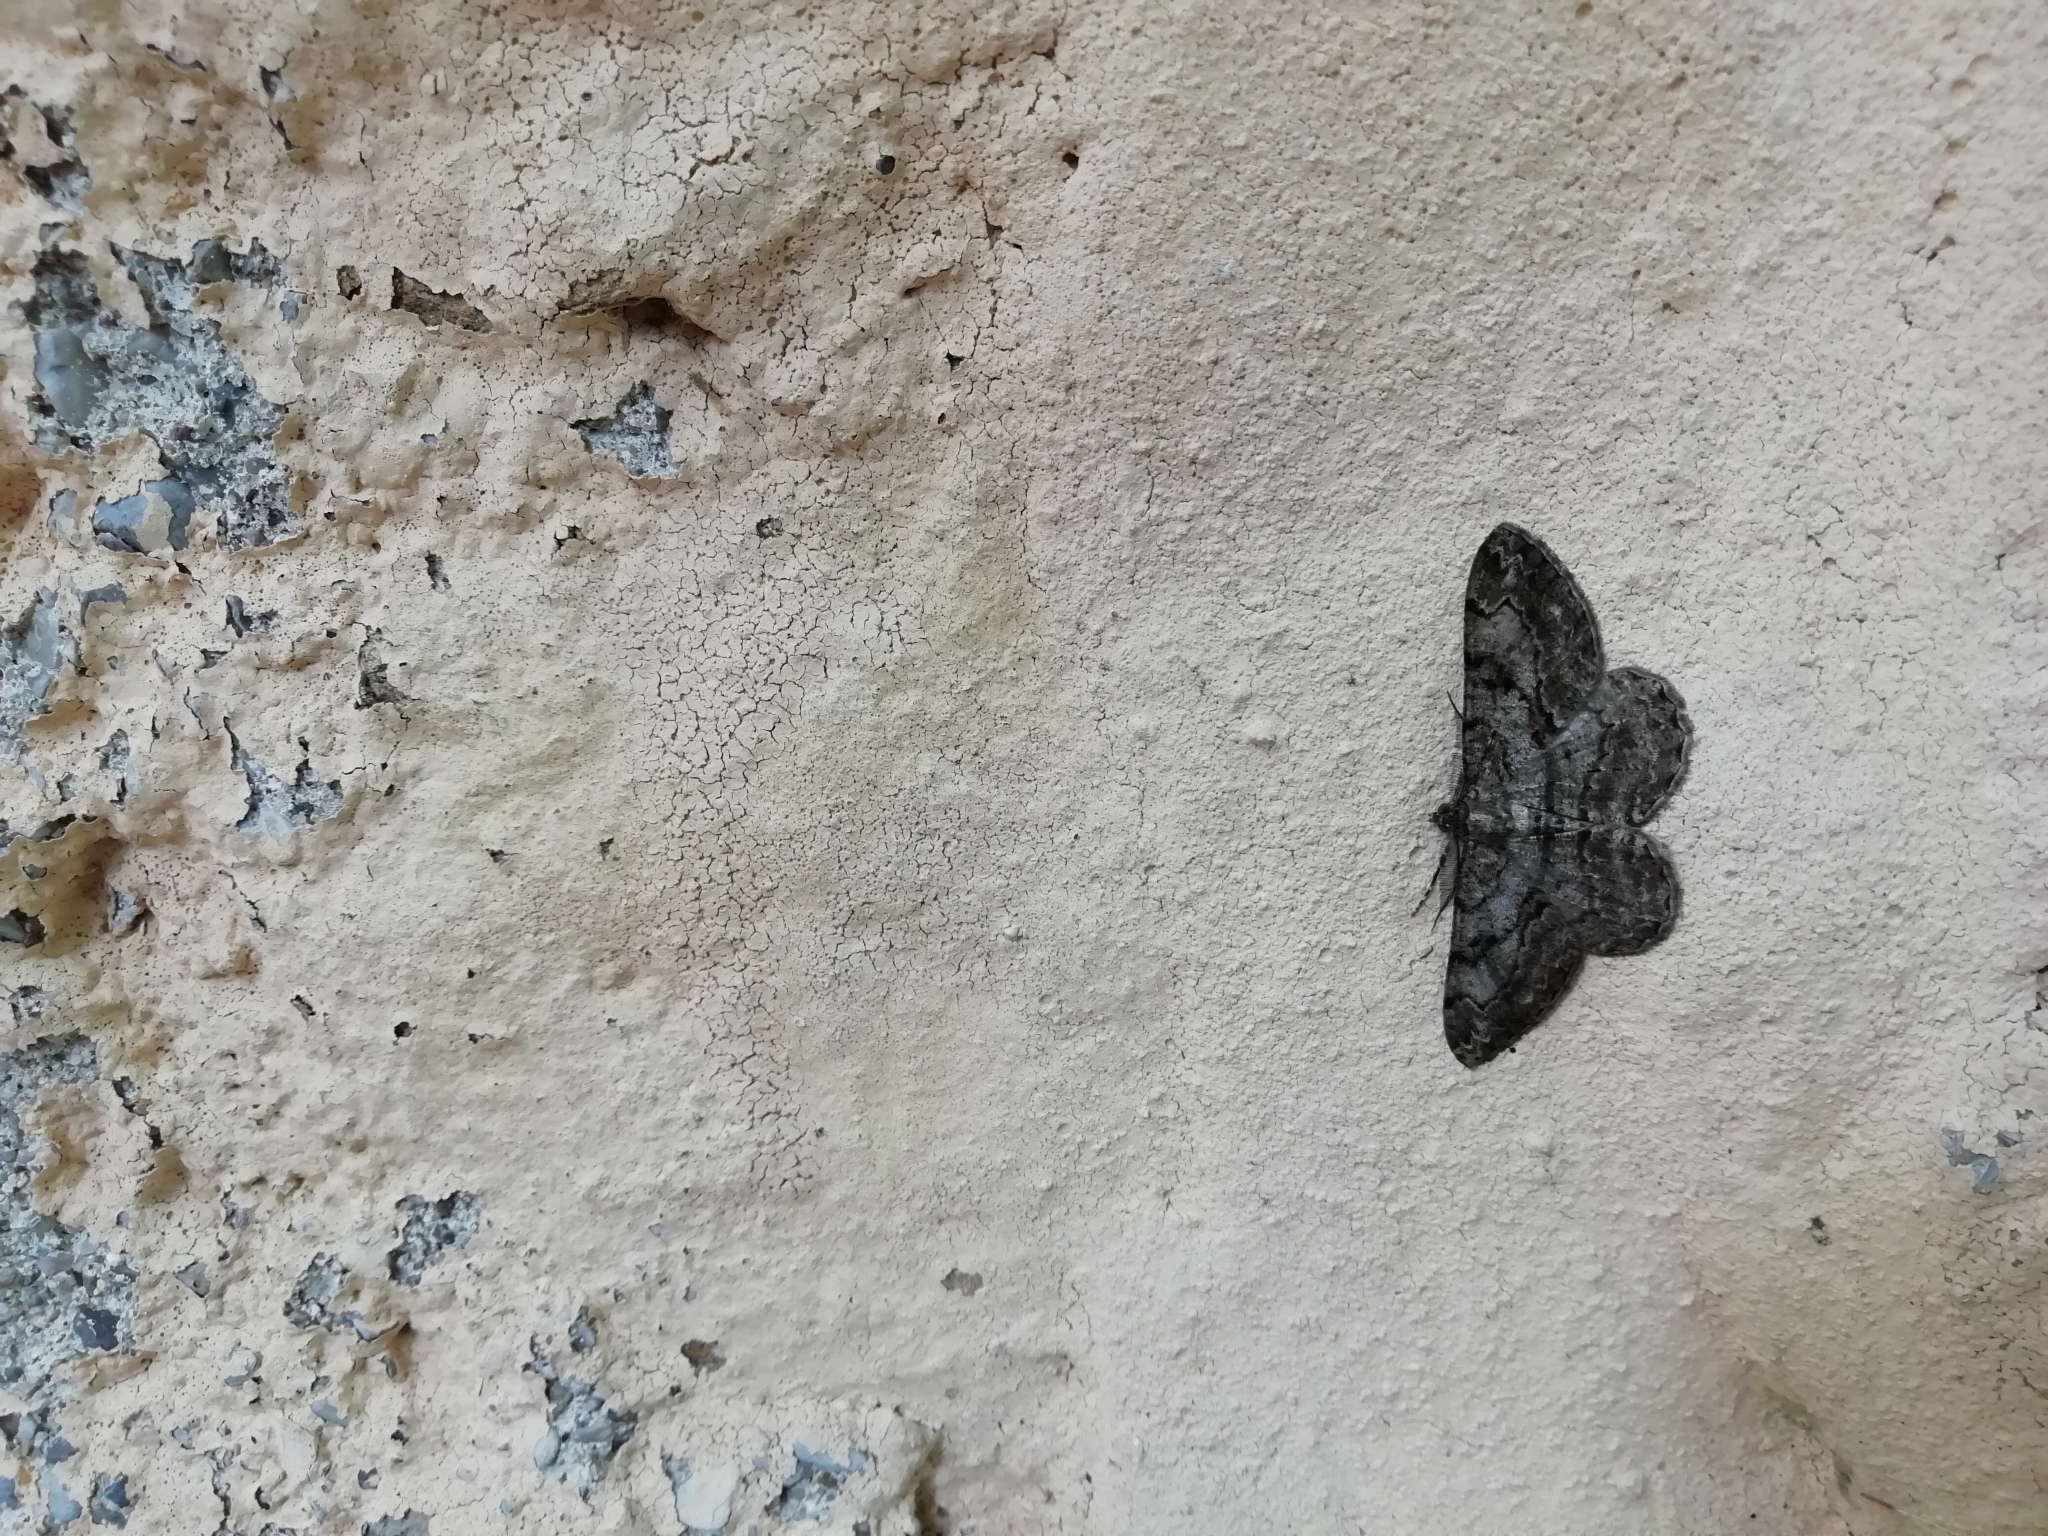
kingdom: Animalia
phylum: Arthropoda
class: Insecta
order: Lepidoptera
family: Geometridae
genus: Peribatodes
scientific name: Peribatodes rhomboidaria
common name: Willow beauty
